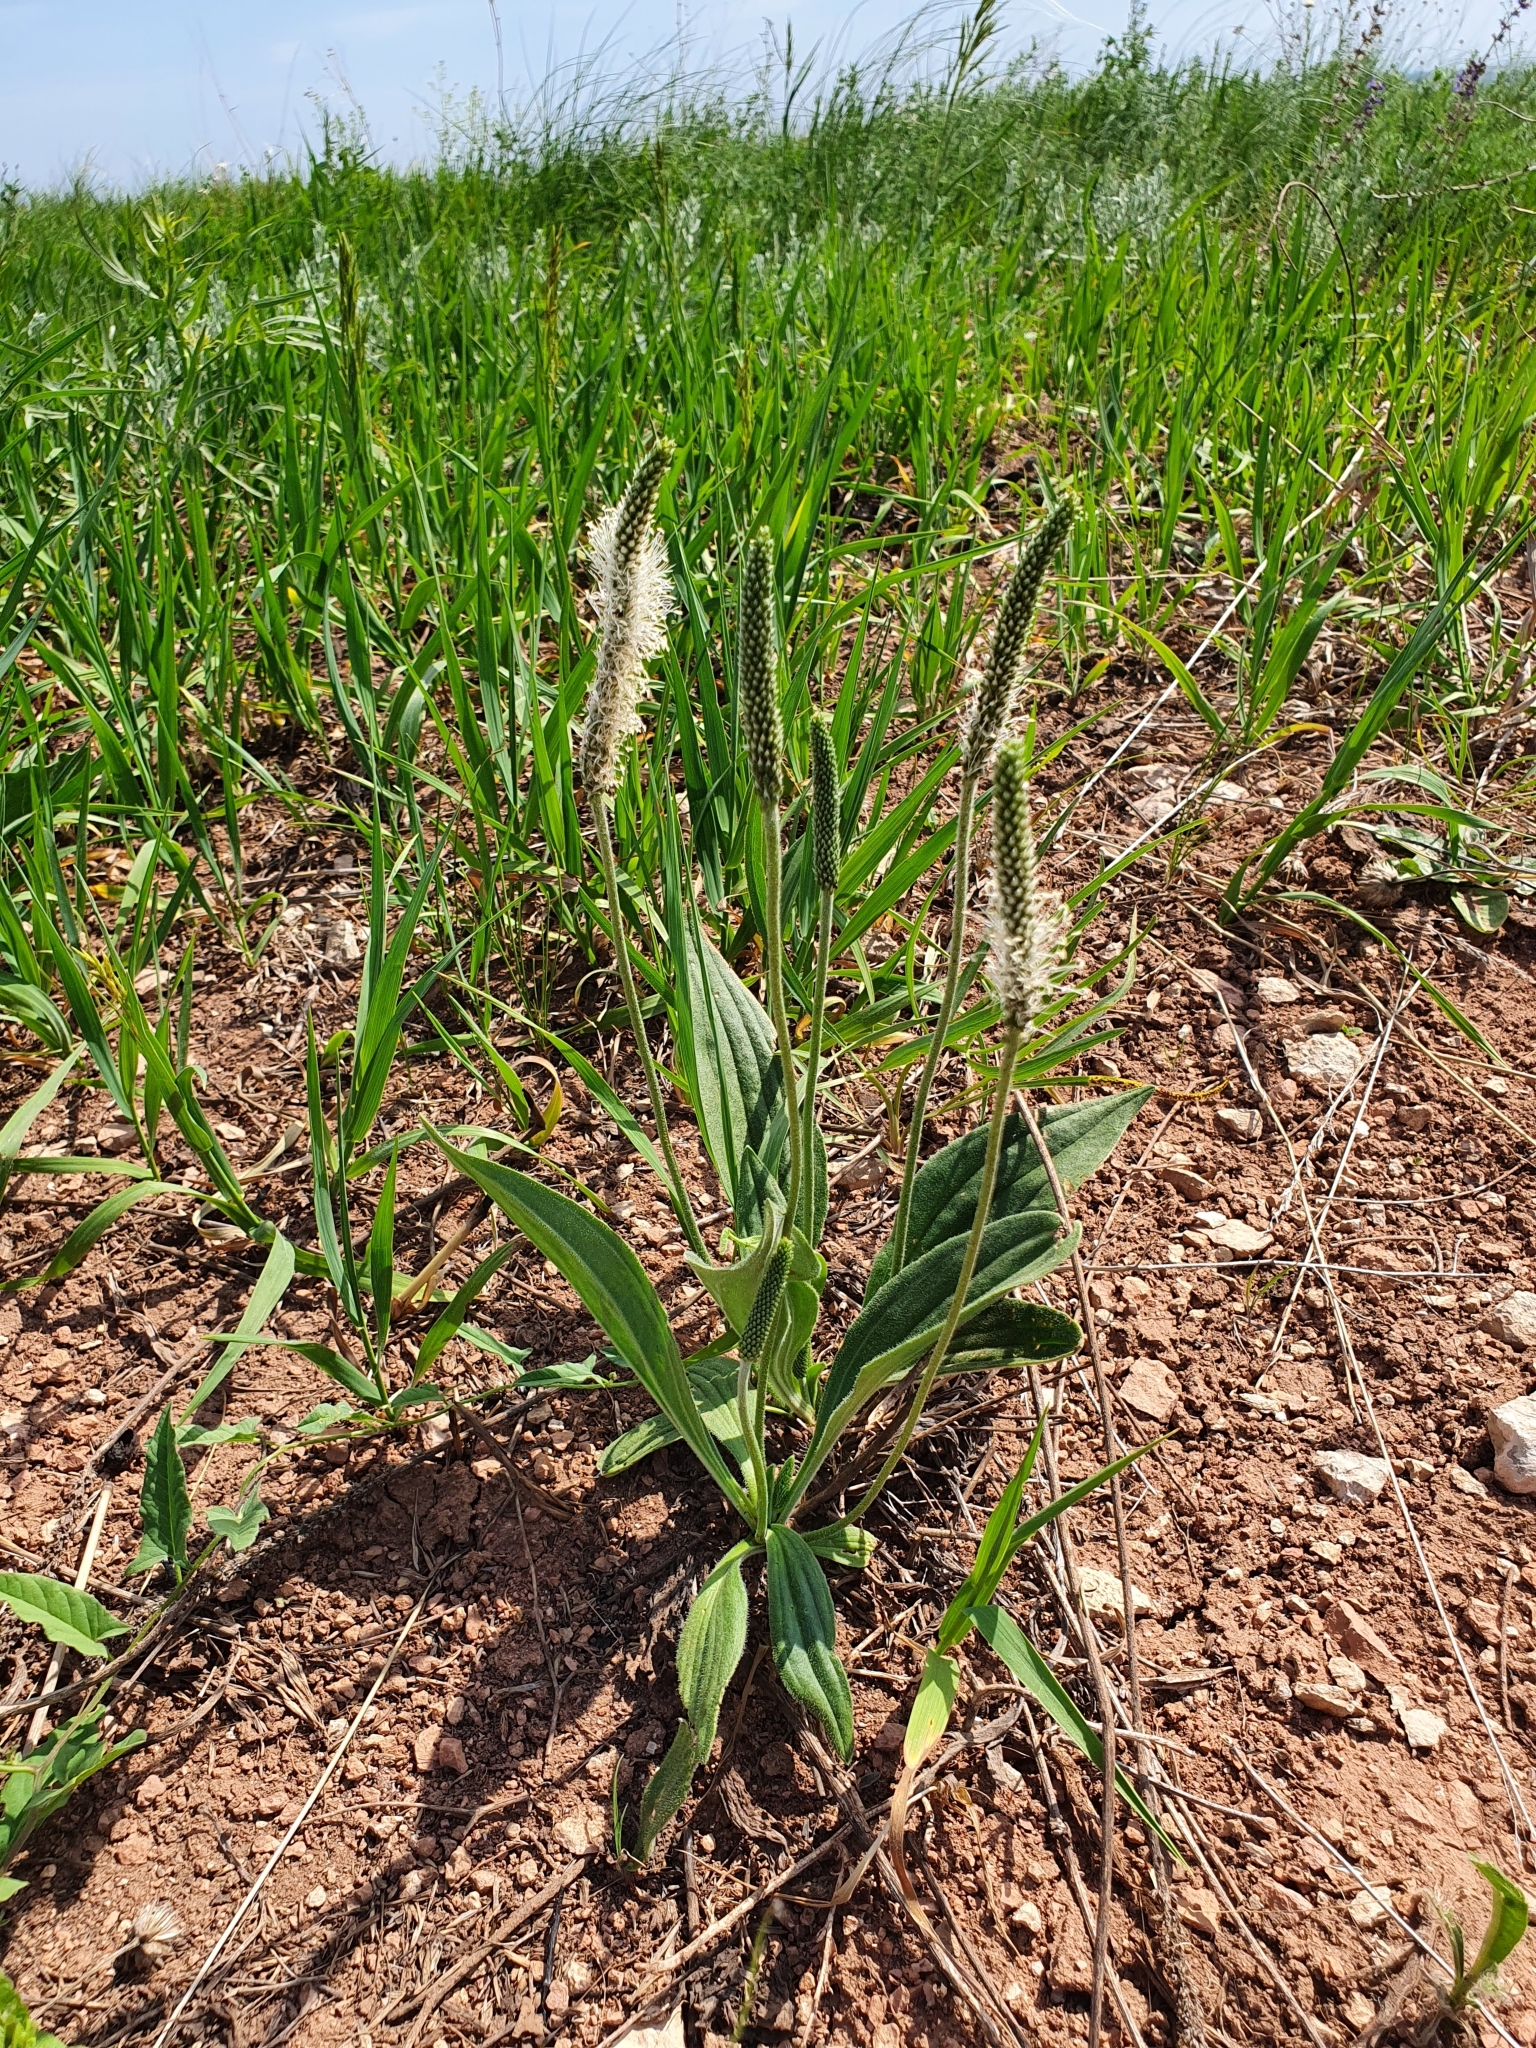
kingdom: Plantae
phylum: Tracheophyta
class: Magnoliopsida
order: Lamiales
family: Plantaginaceae
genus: Plantago
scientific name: Plantago urvillei
